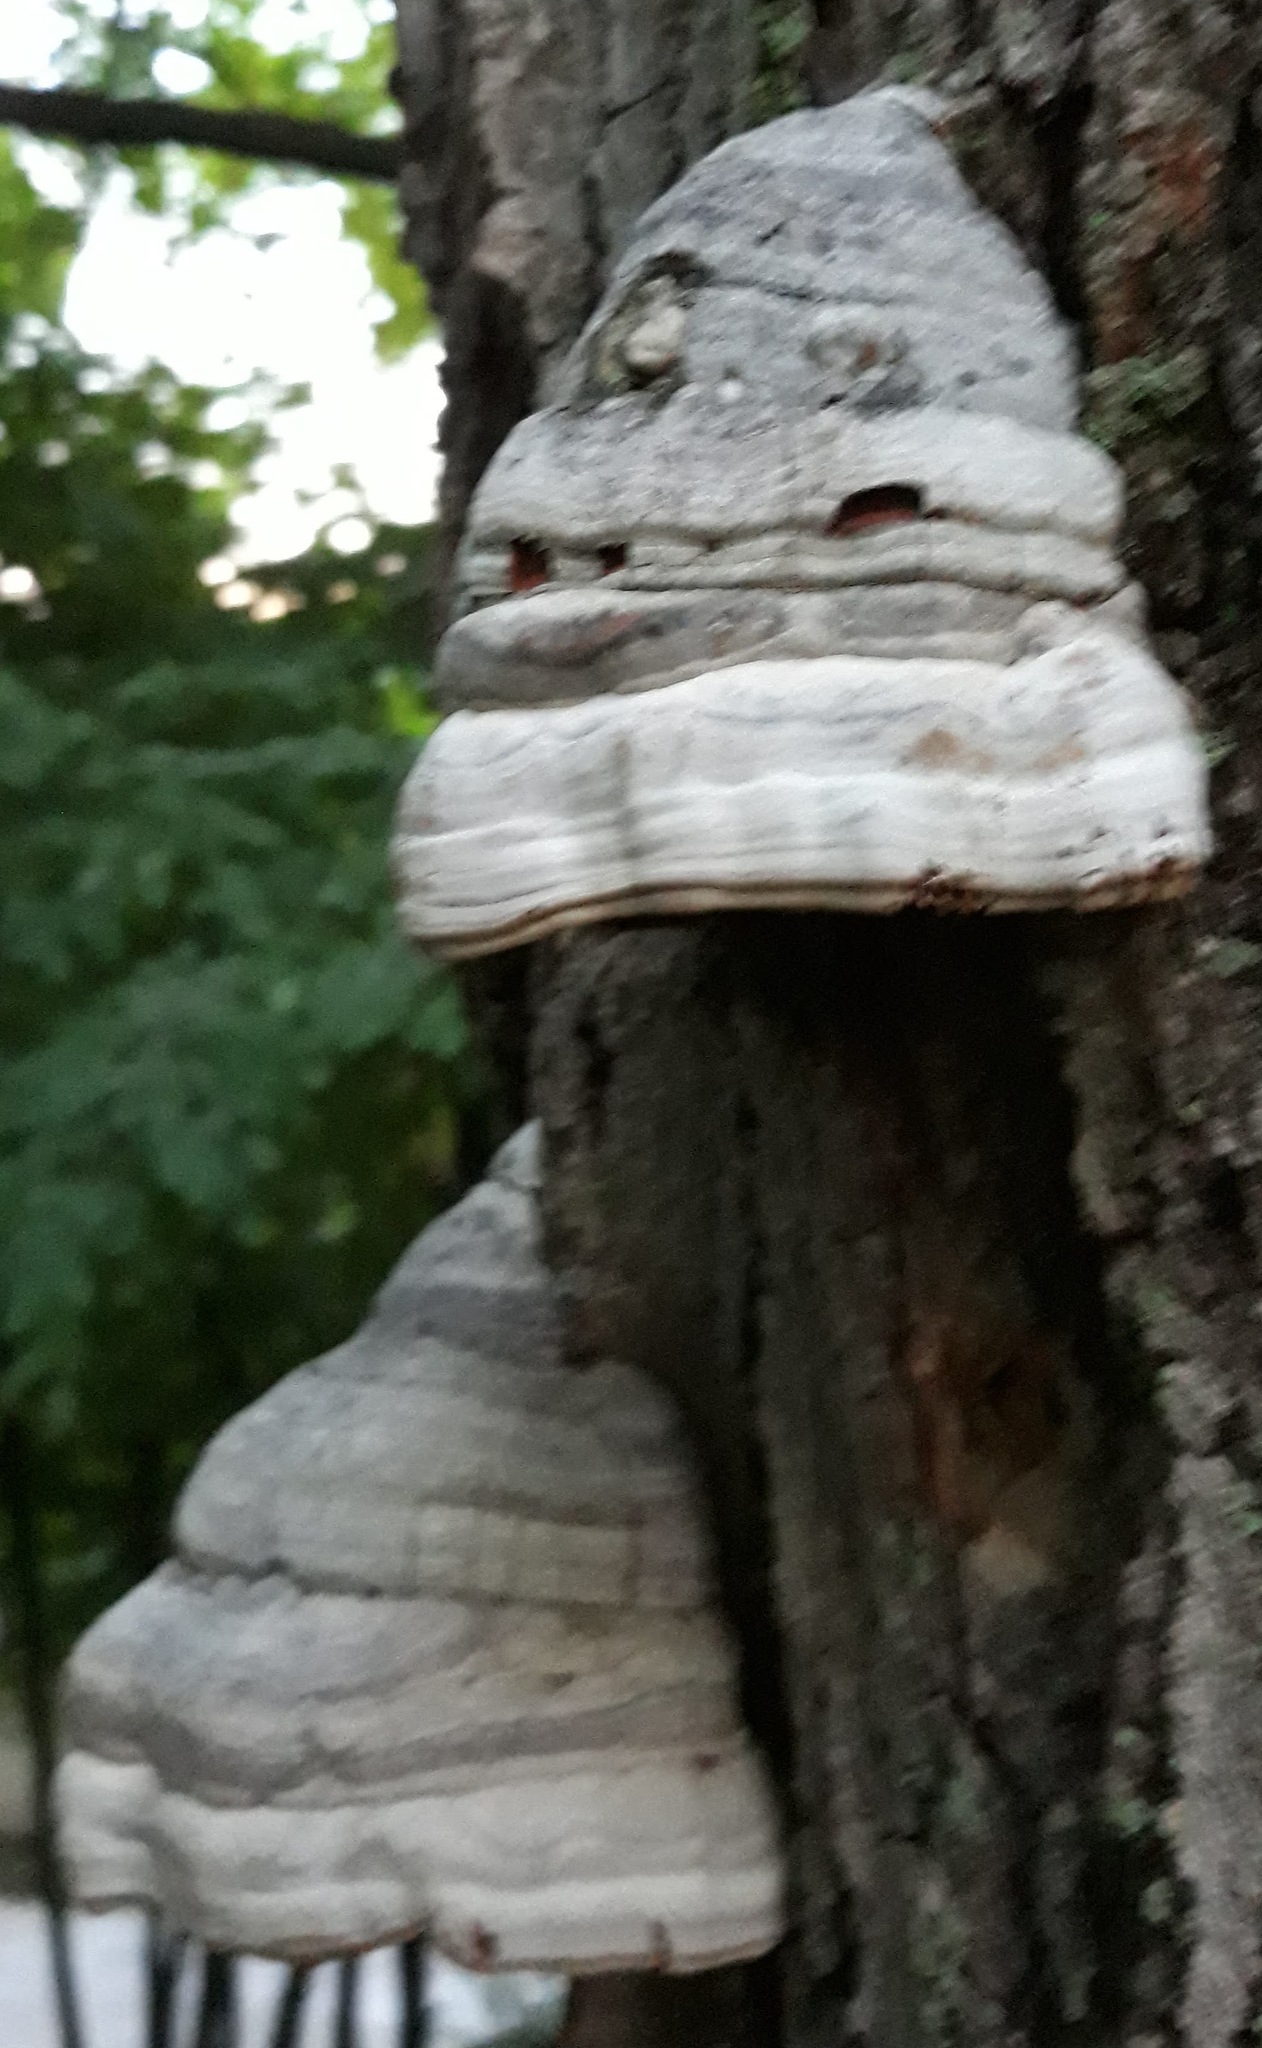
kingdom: Fungi
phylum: Basidiomycota
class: Agaricomycetes
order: Polyporales
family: Polyporaceae
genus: Fomes
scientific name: Fomes fomentarius
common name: Hoof fungus
